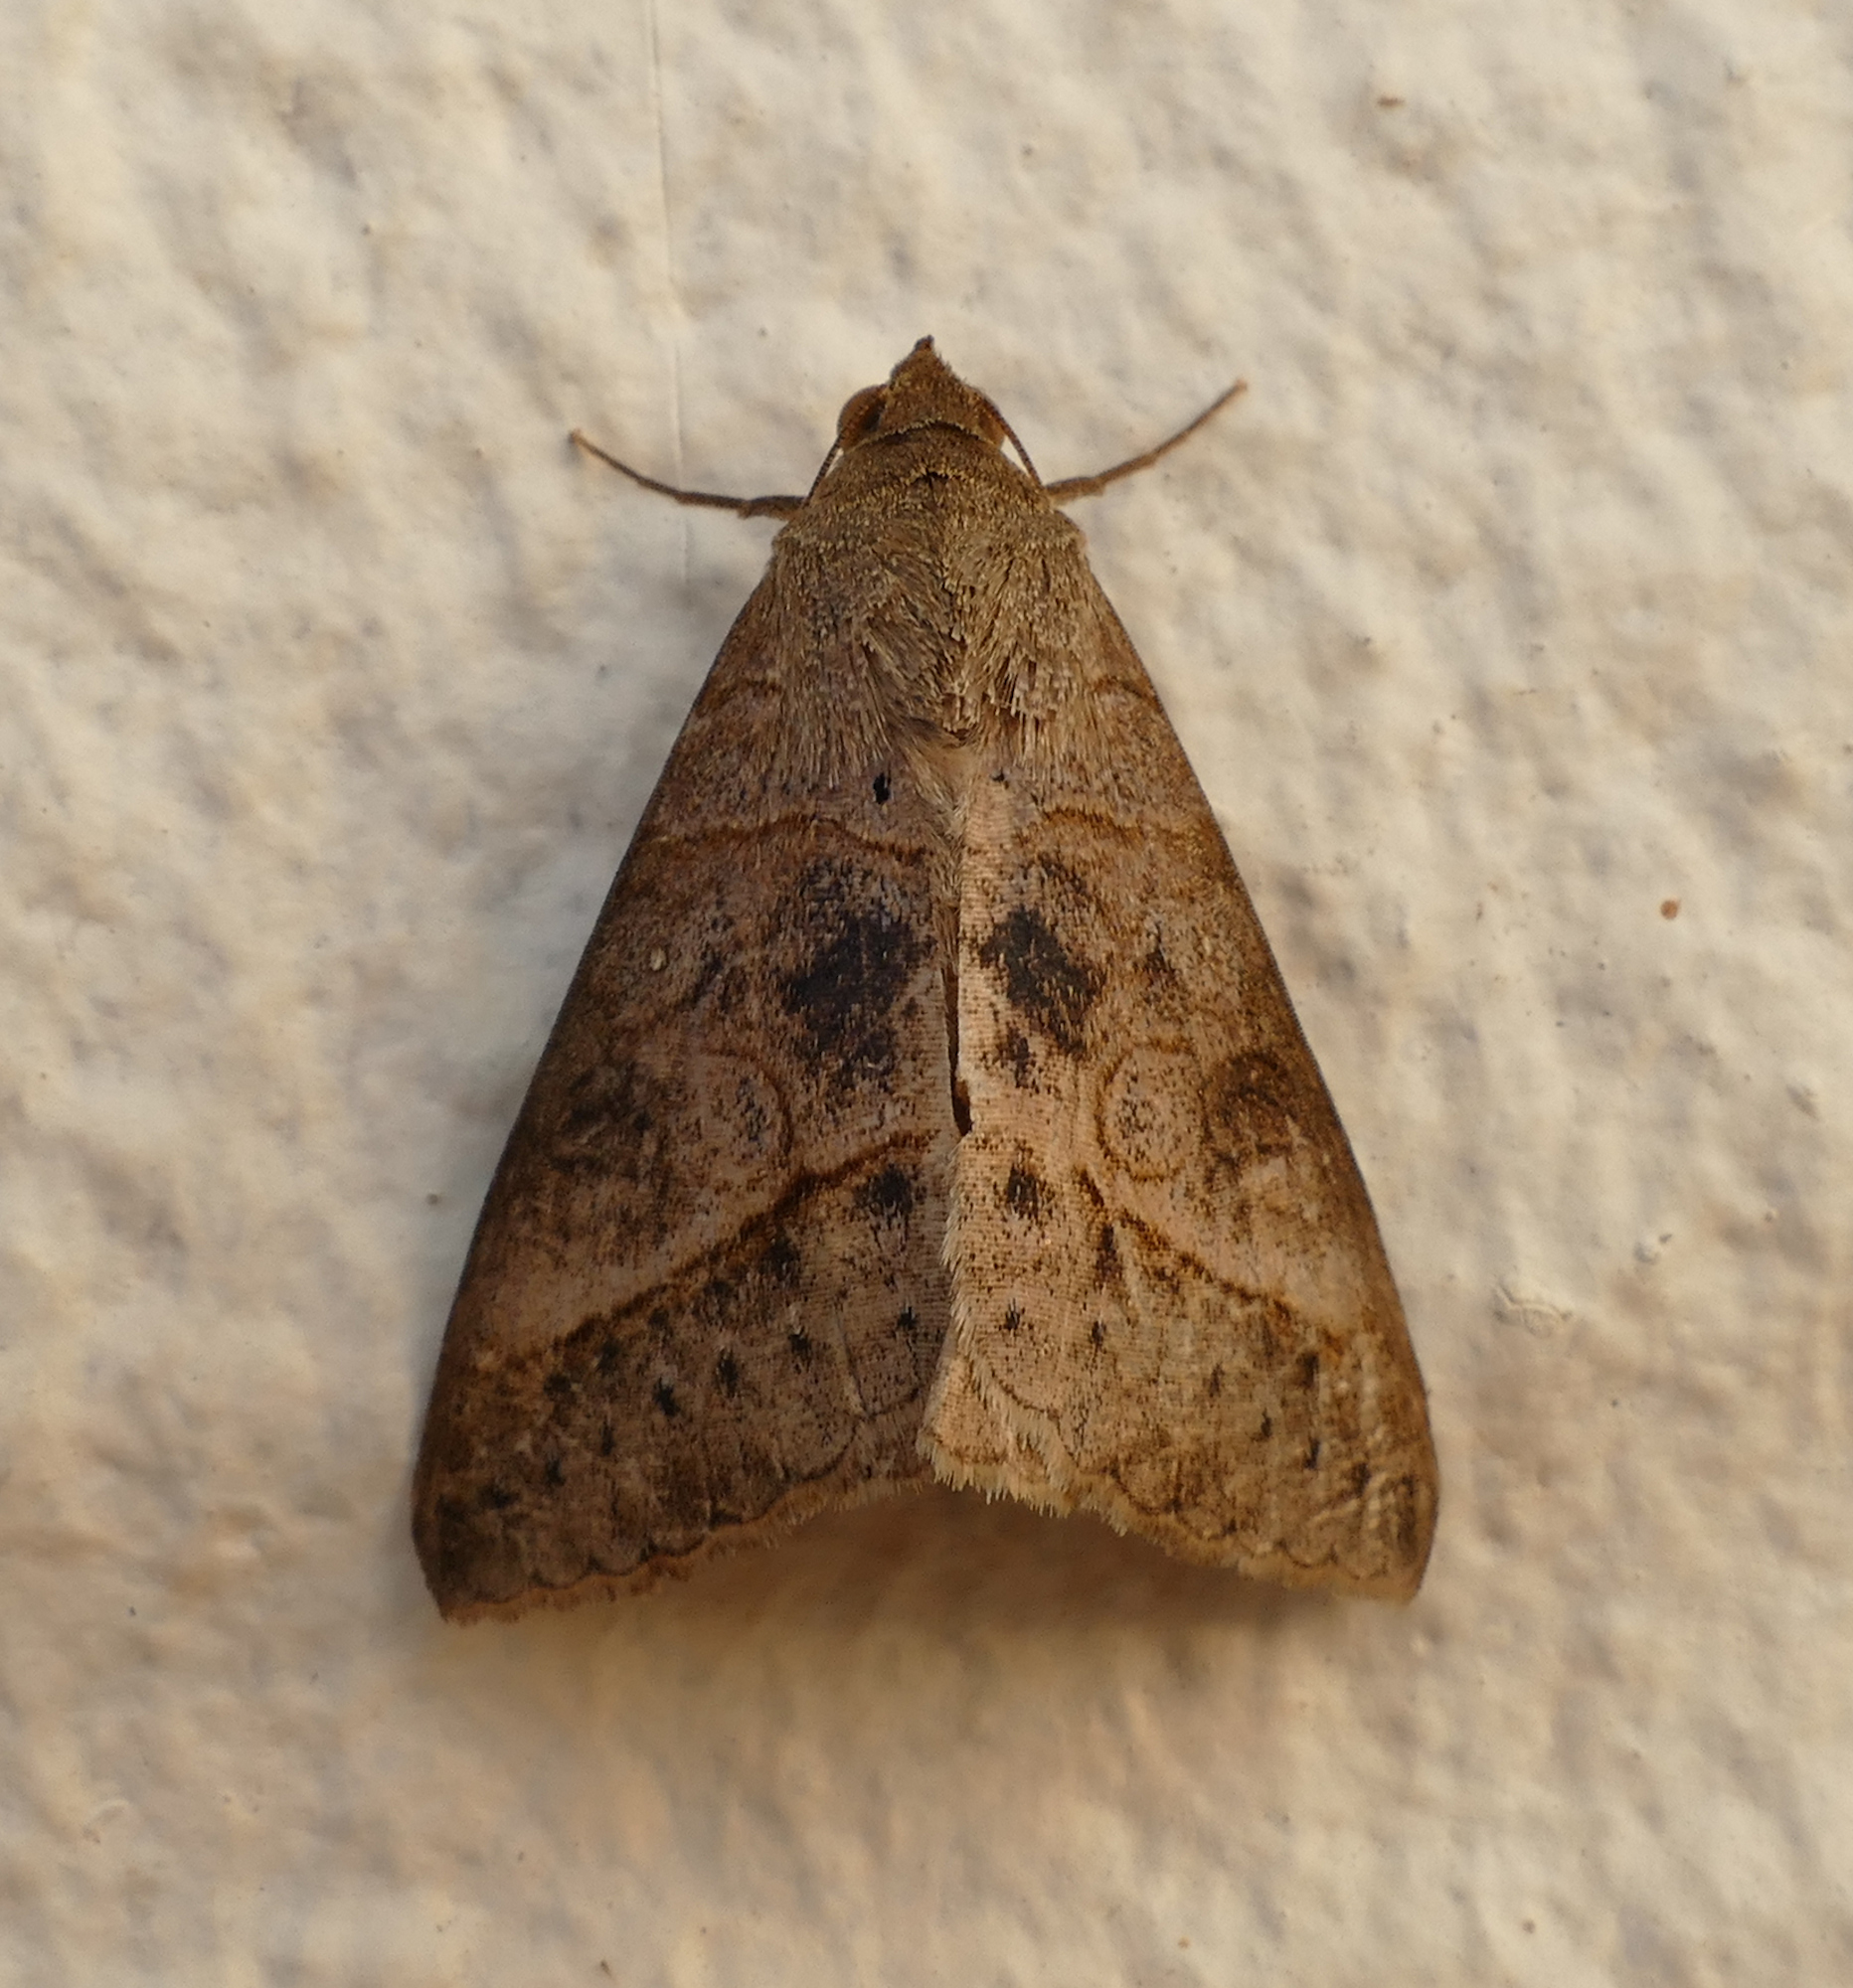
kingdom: Animalia
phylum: Arthropoda
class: Insecta
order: Lepidoptera
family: Erebidae
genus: Mocis
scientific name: Mocis latipes
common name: Striped grass looper
